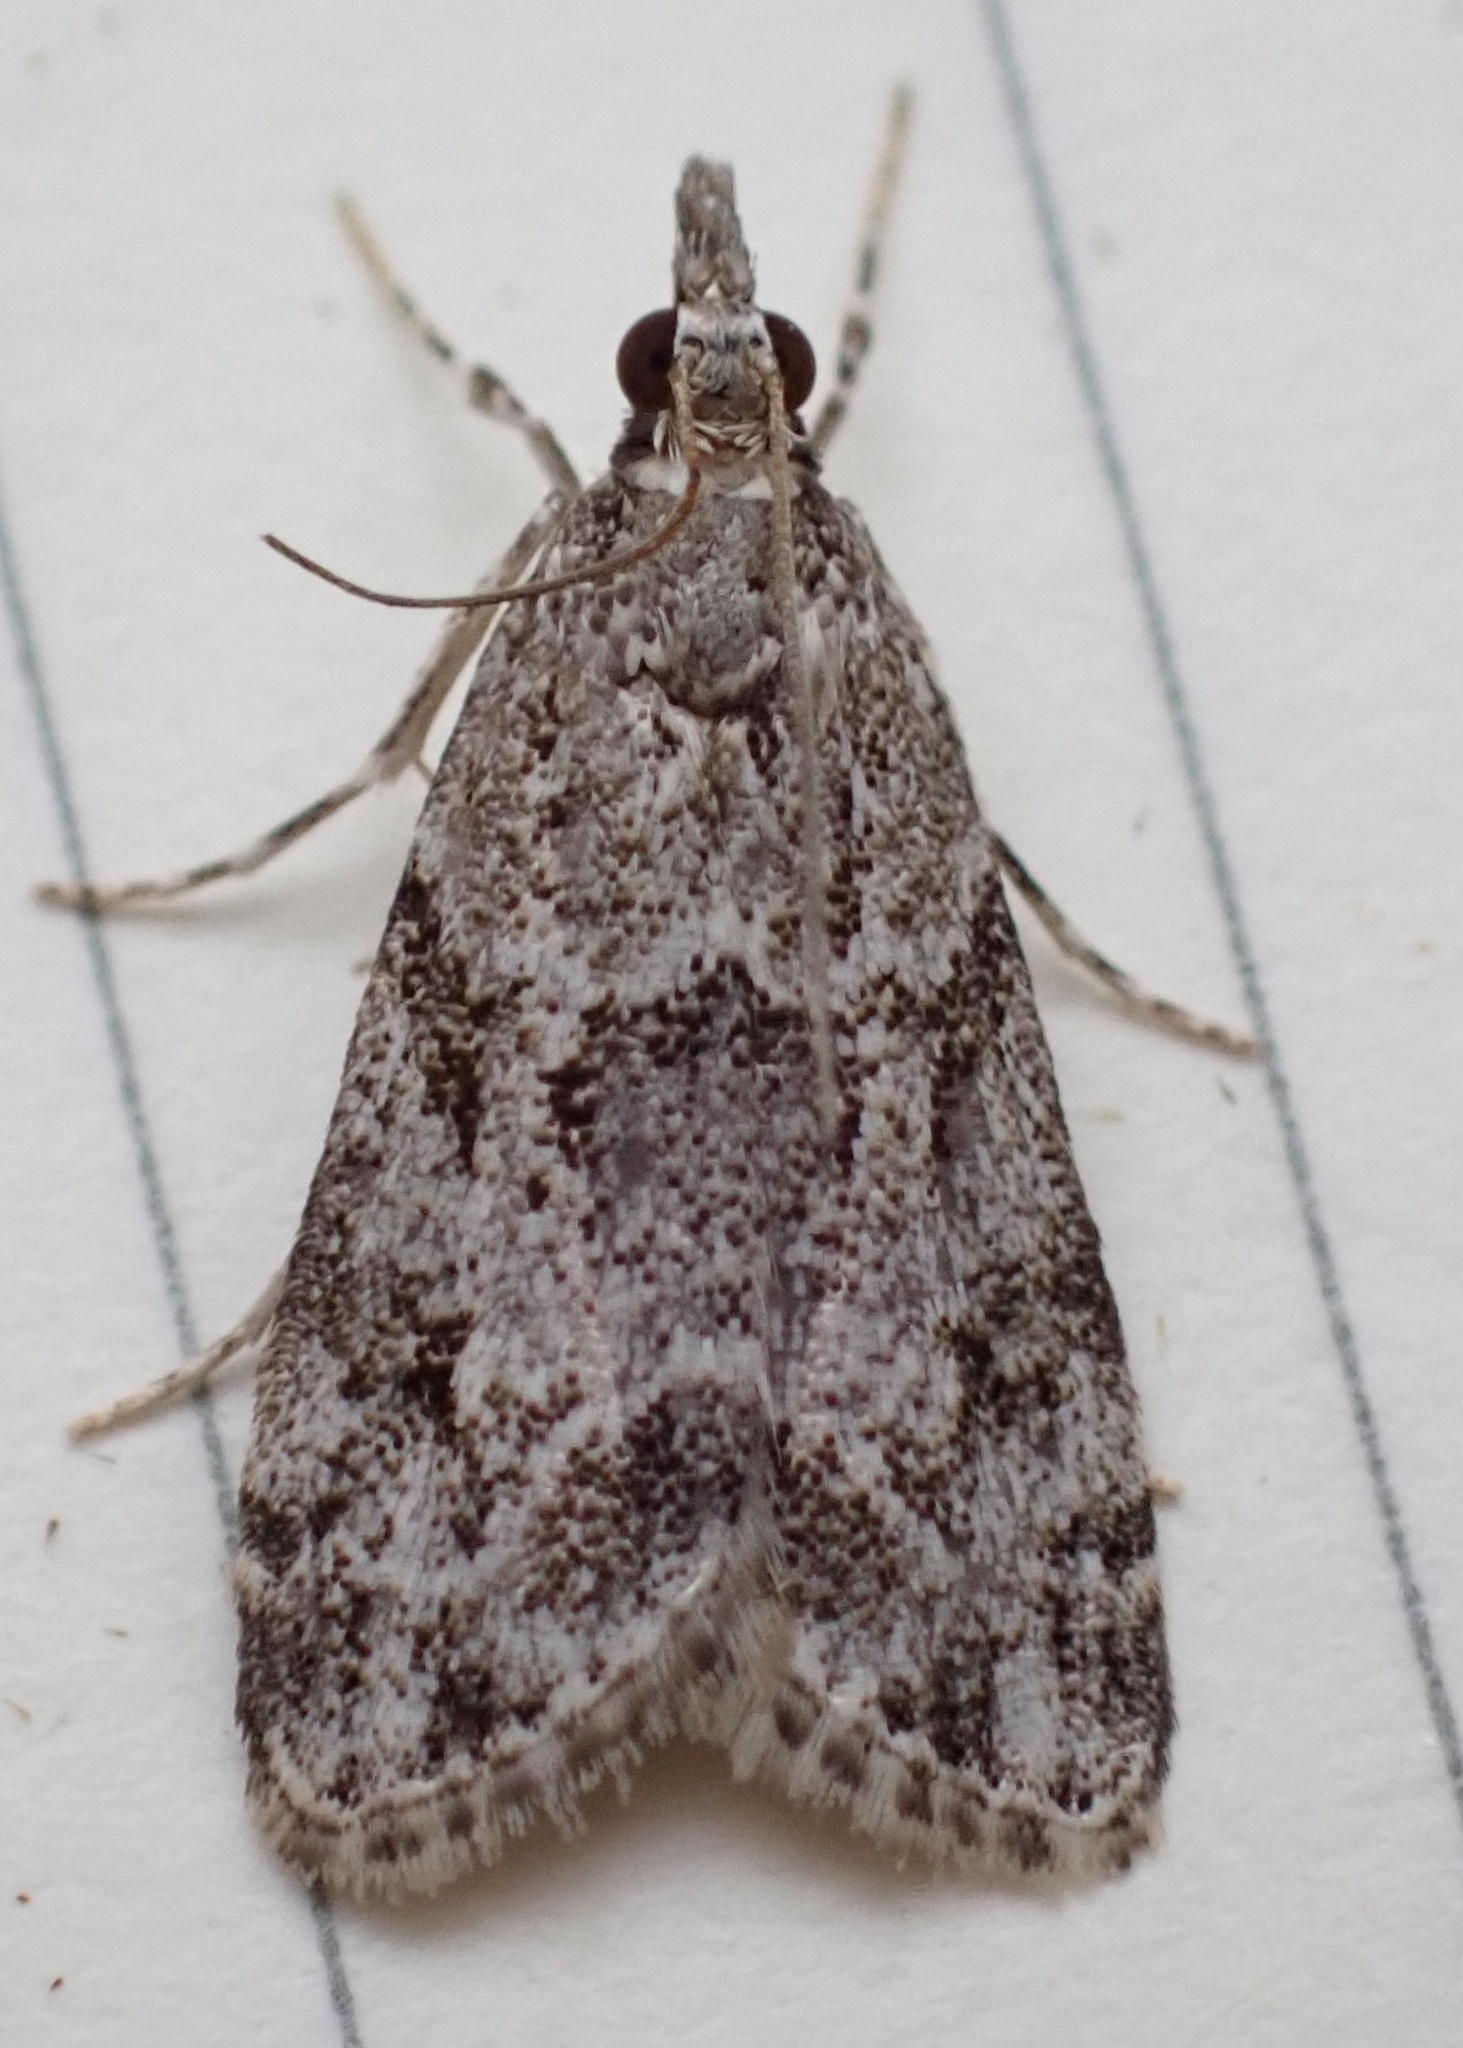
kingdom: Animalia
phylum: Arthropoda
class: Insecta
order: Lepidoptera
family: Crambidae
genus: Eudonia
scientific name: Eudonia heterosalis
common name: Mcdunnough's eudonia
